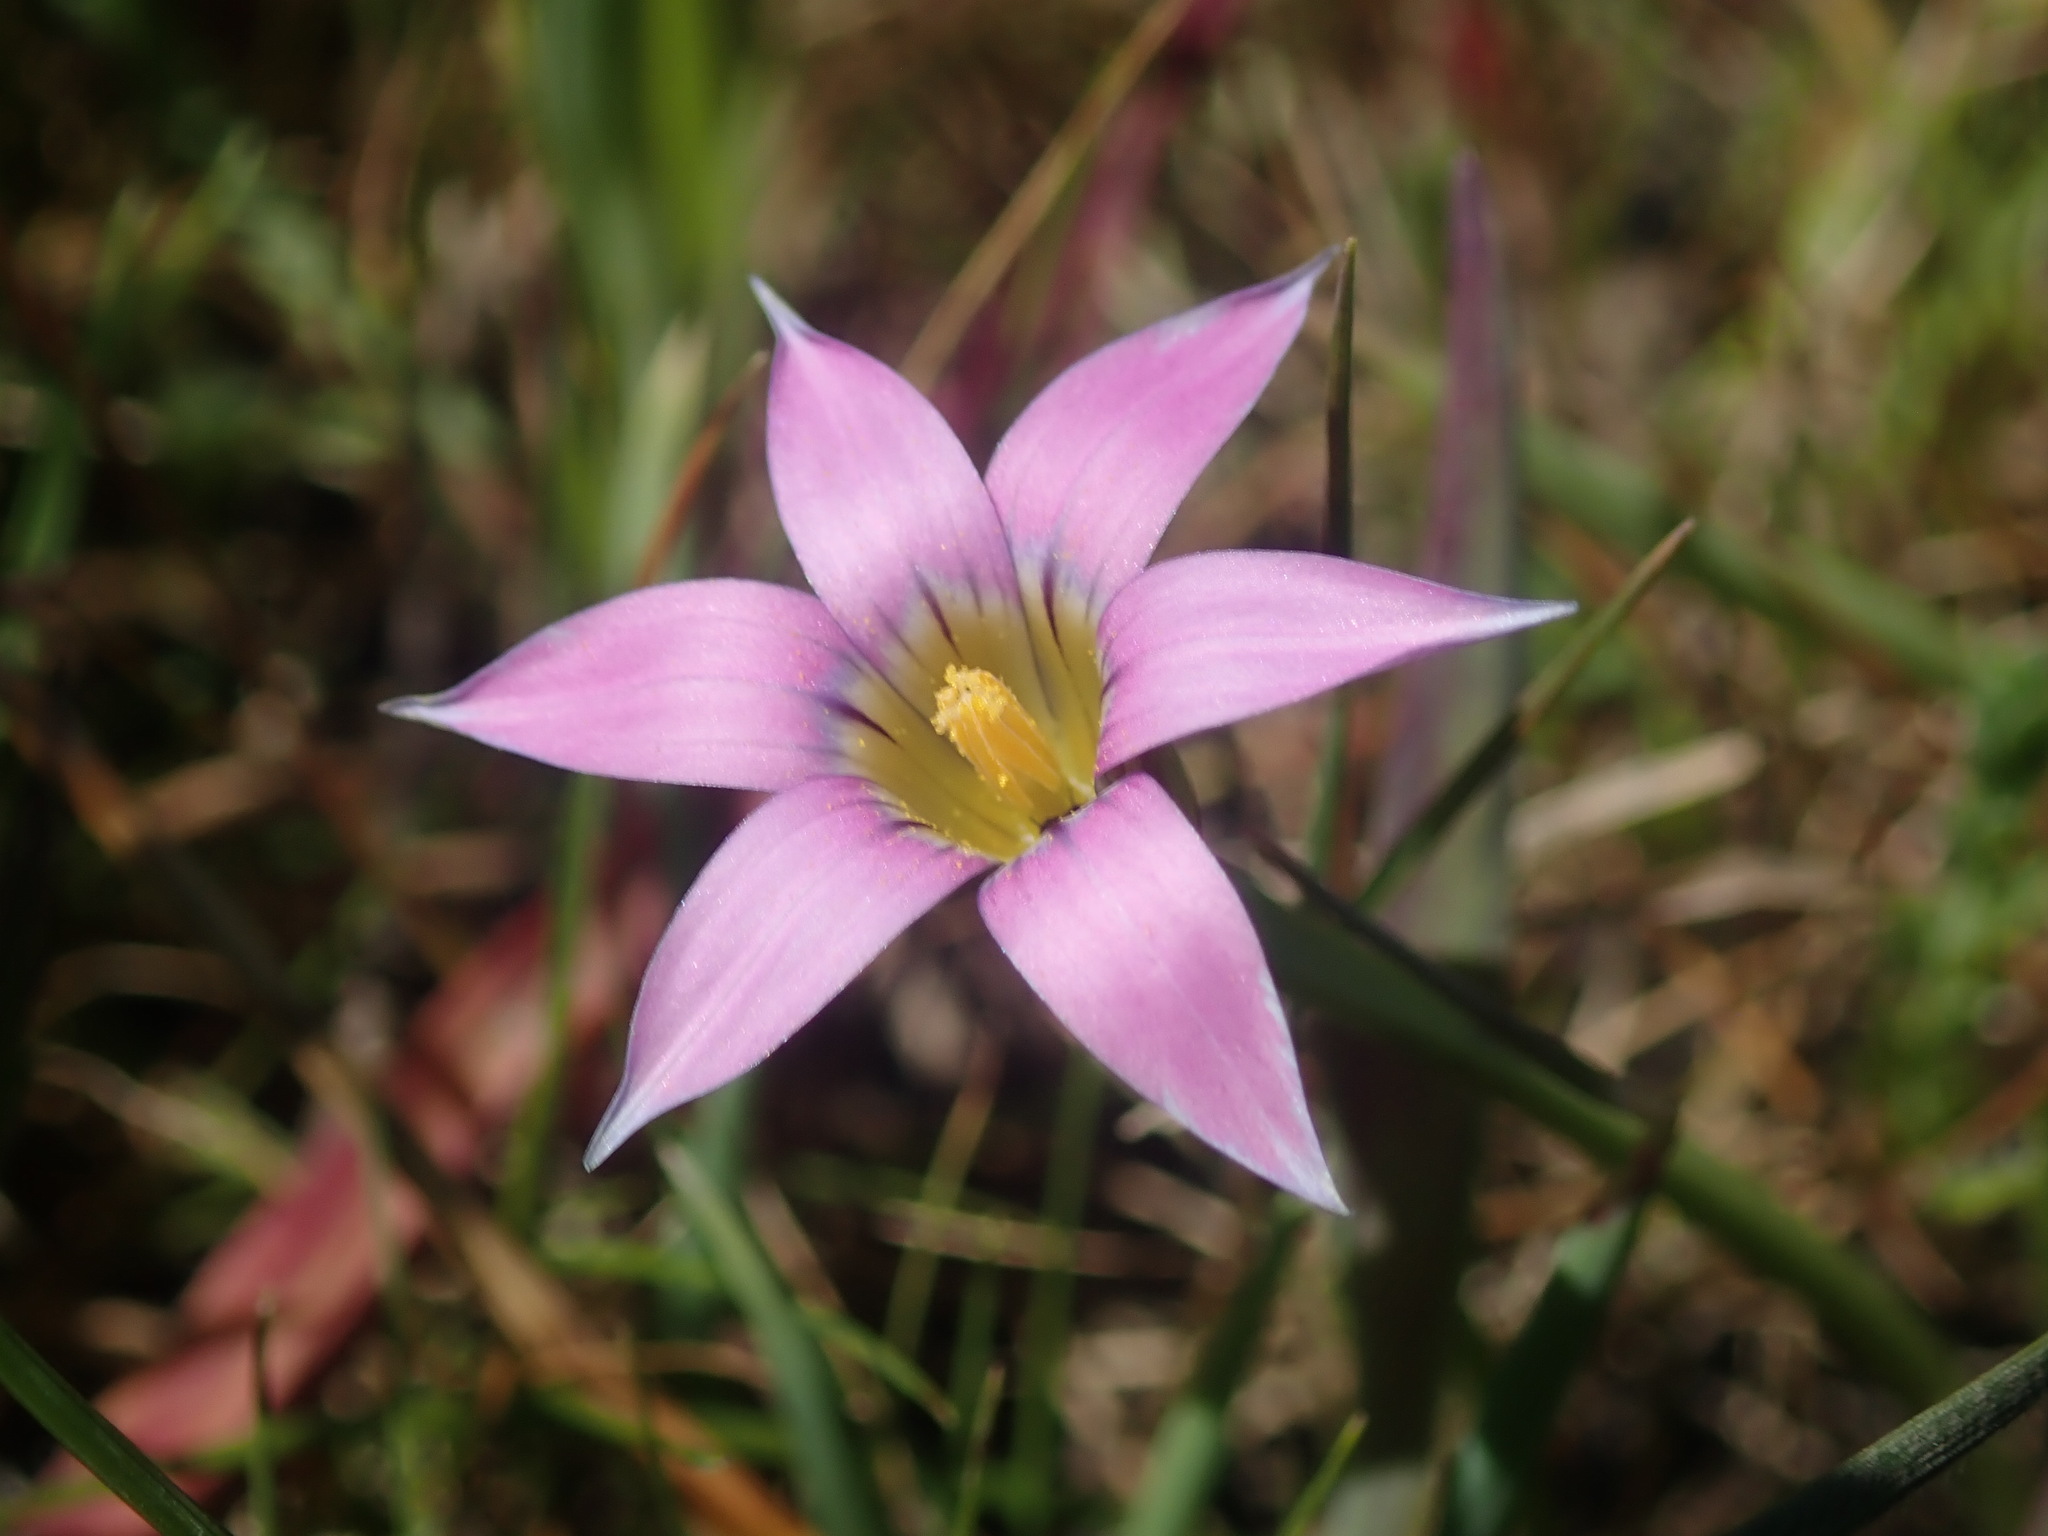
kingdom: Plantae
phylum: Tracheophyta
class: Liliopsida
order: Asparagales
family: Iridaceae
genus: Romulea
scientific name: Romulea rosea
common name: Oniongrass
